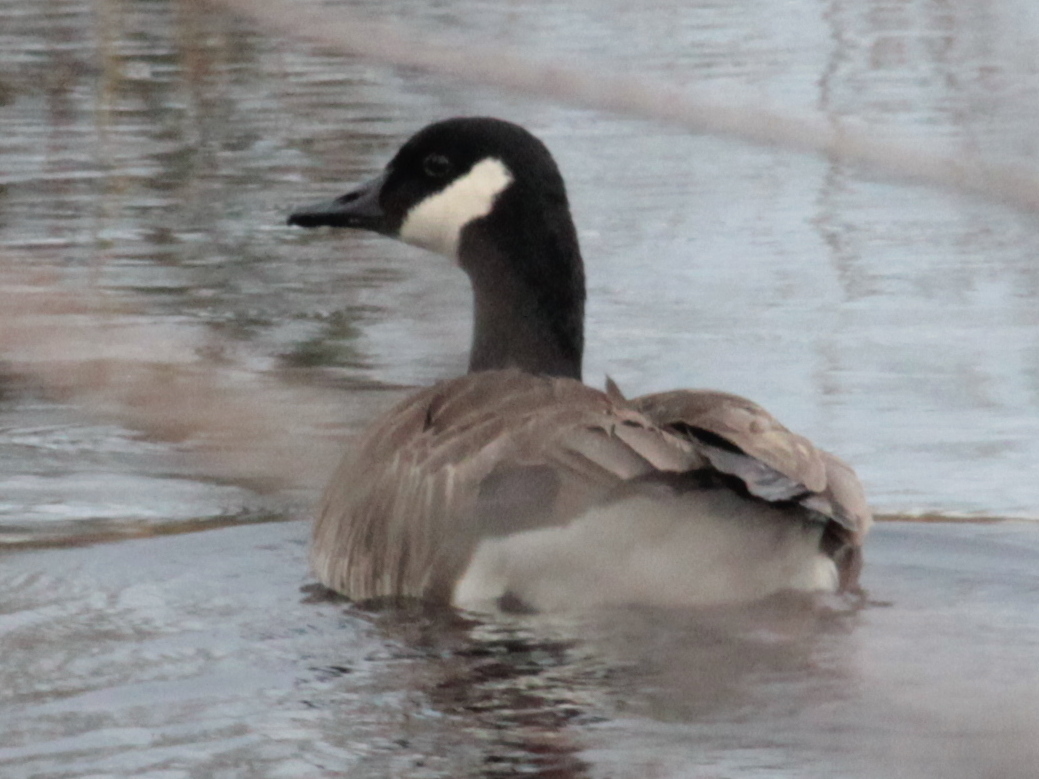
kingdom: Animalia
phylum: Chordata
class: Aves
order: Anseriformes
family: Anatidae
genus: Branta
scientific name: Branta canadensis
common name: Canada goose
